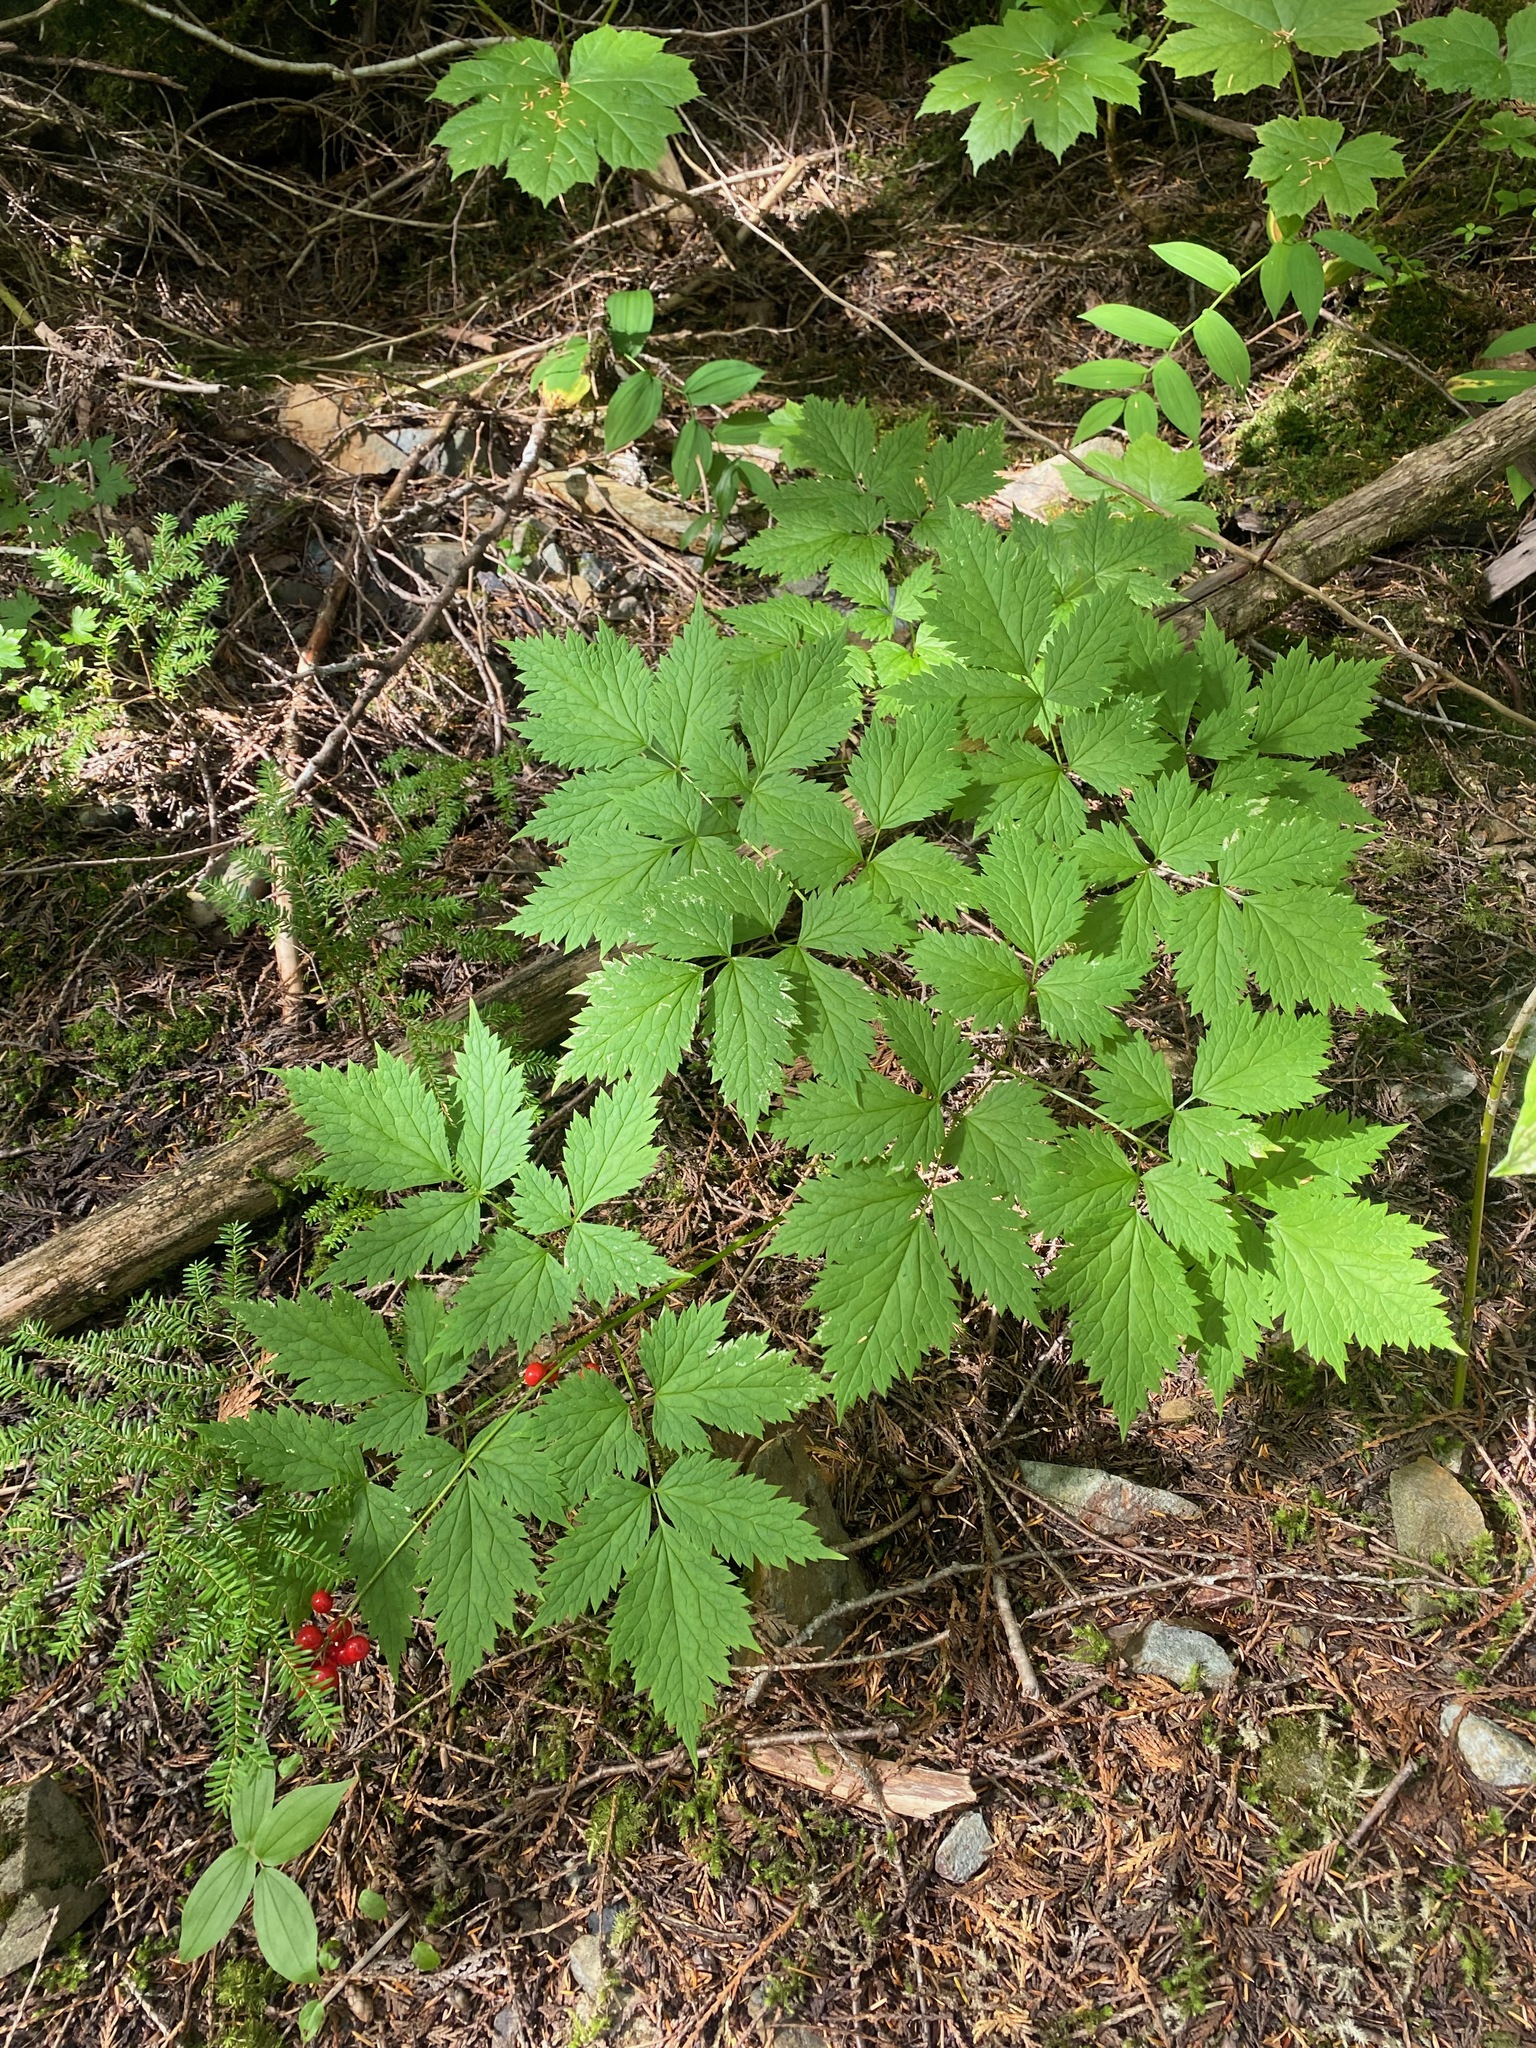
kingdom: Plantae
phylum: Tracheophyta
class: Magnoliopsida
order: Ranunculales
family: Ranunculaceae
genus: Actaea
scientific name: Actaea rubra
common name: Red baneberry
